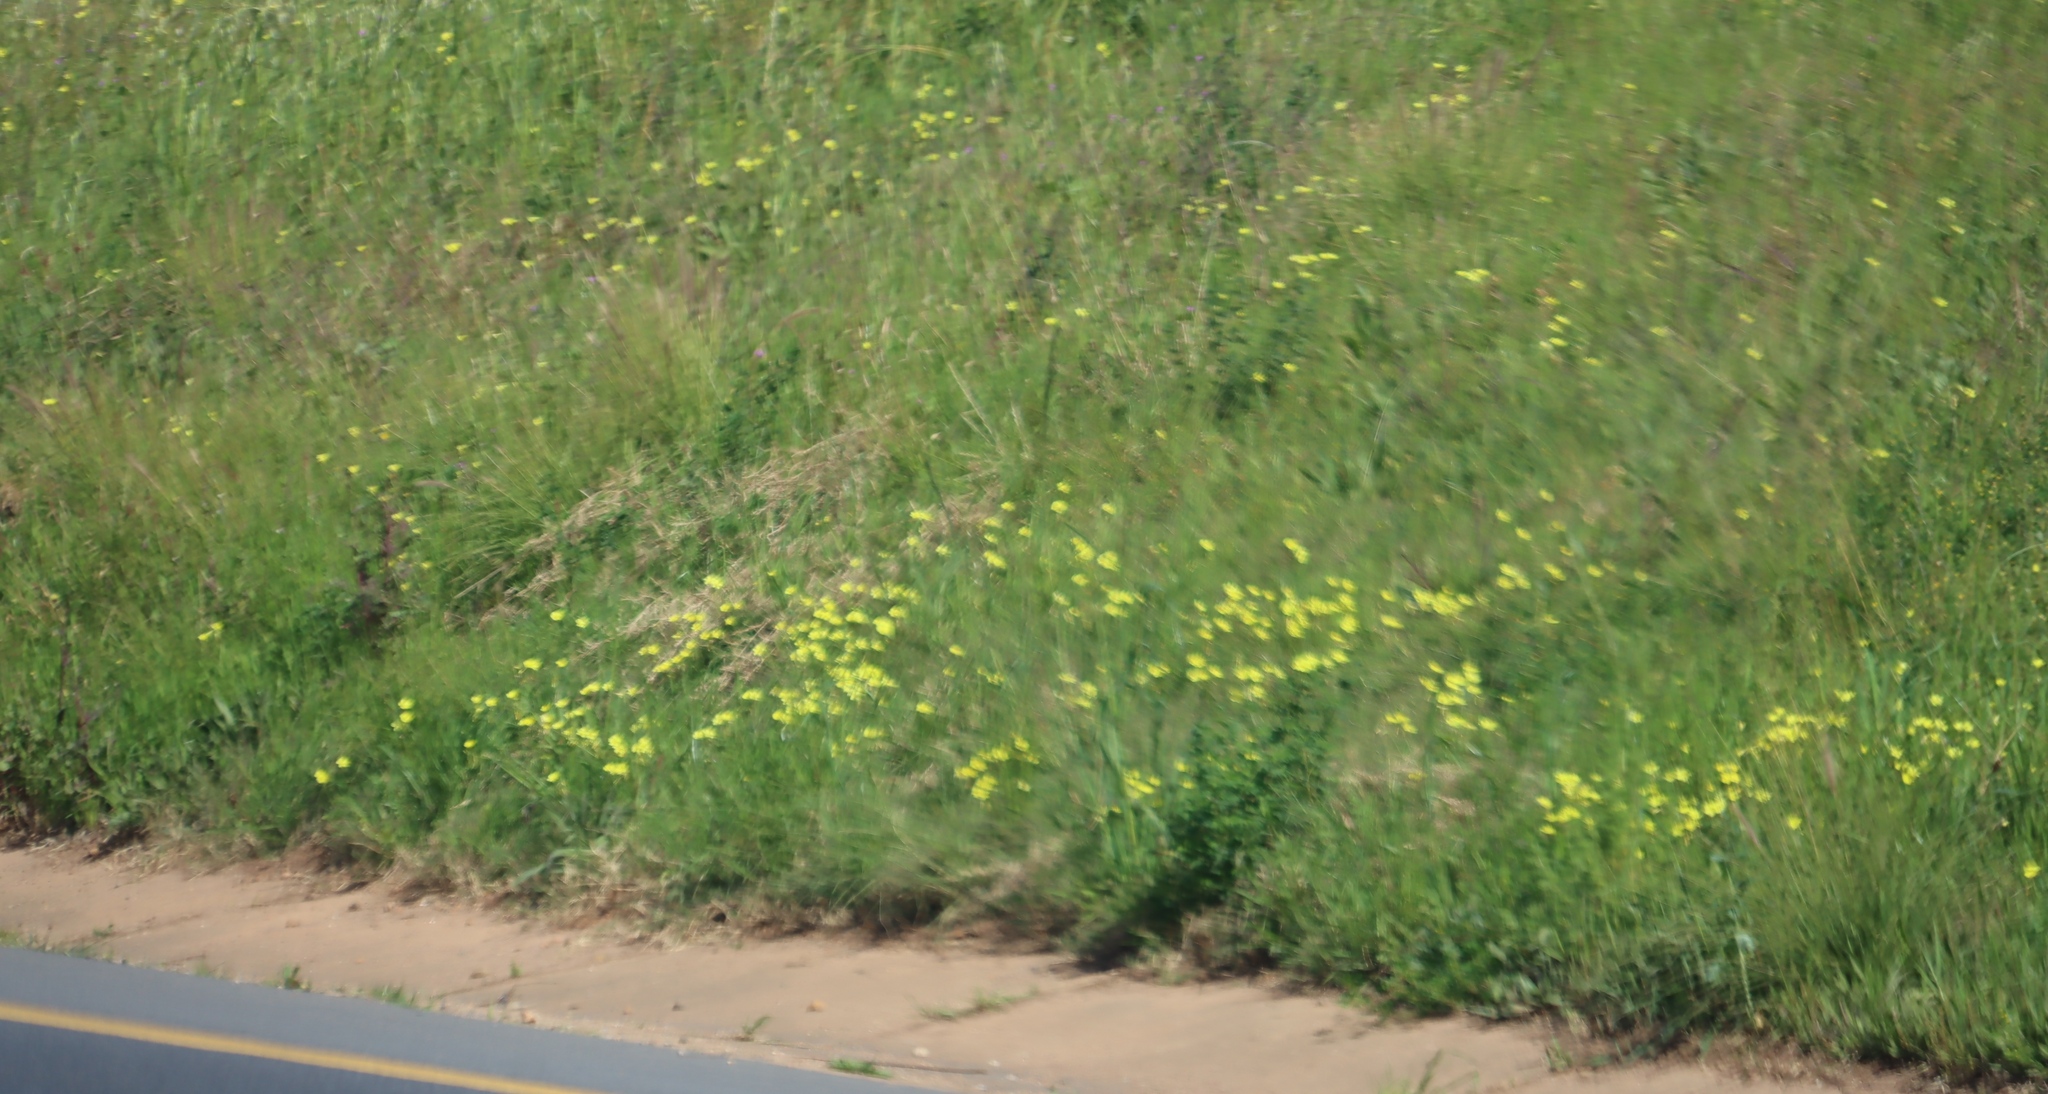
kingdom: Plantae
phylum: Tracheophyta
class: Magnoliopsida
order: Oxalidales
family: Oxalidaceae
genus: Oxalis
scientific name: Oxalis pes-caprae
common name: Bermuda-buttercup
